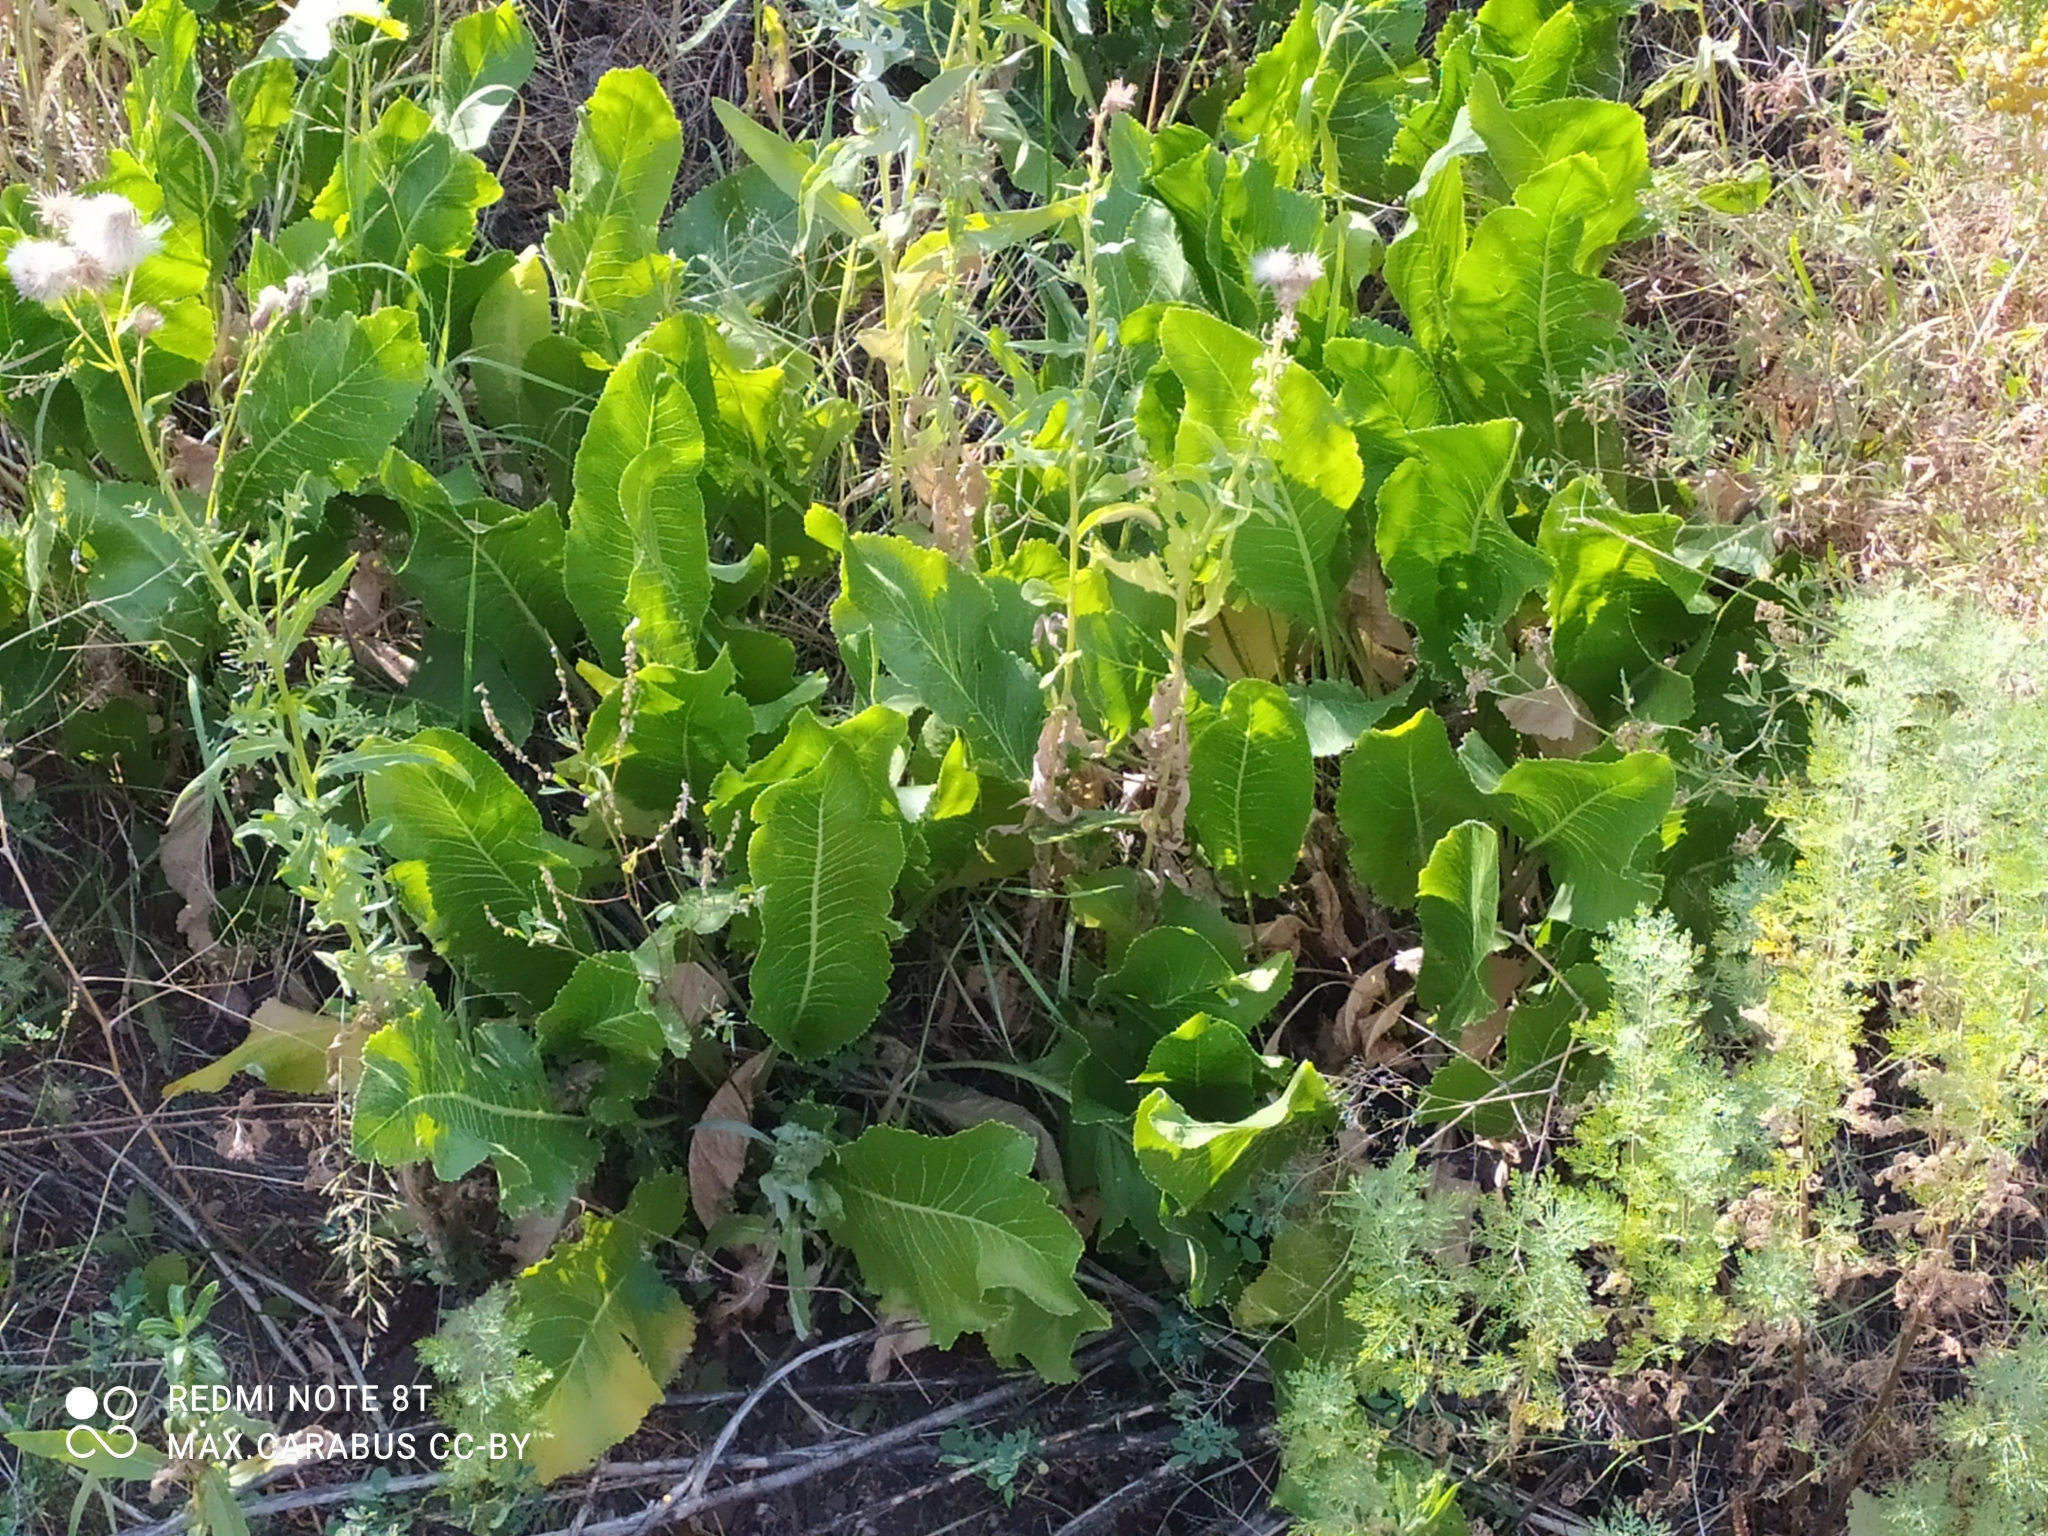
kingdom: Plantae
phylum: Tracheophyta
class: Magnoliopsida
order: Brassicales
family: Brassicaceae
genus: Armoracia
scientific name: Armoracia rusticana
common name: Horseradish
